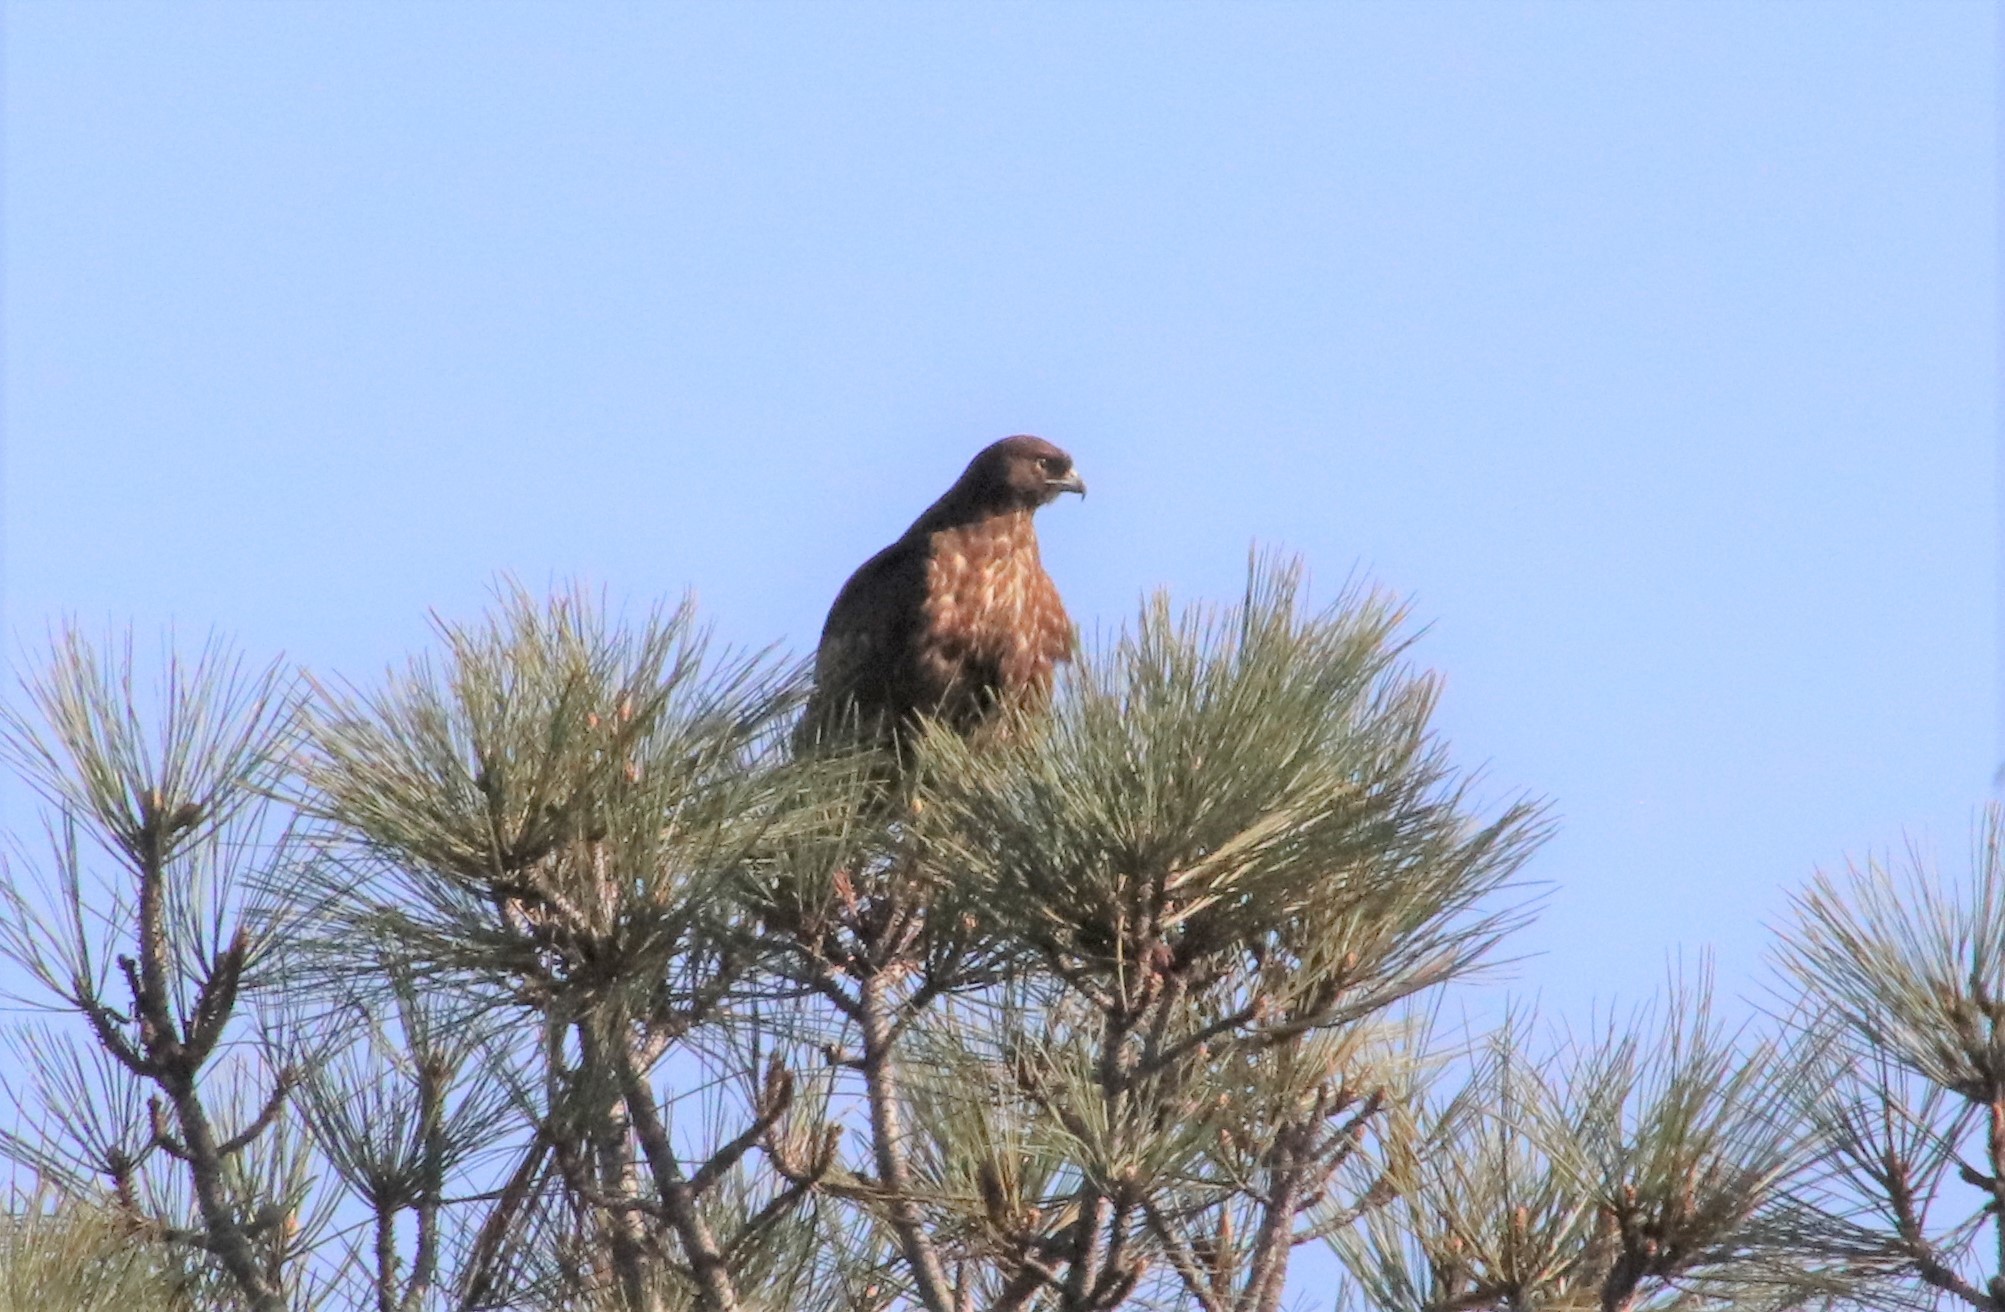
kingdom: Animalia
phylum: Chordata
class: Aves
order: Accipitriformes
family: Accipitridae
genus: Buteo
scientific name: Buteo jamaicensis
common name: Red-tailed hawk
